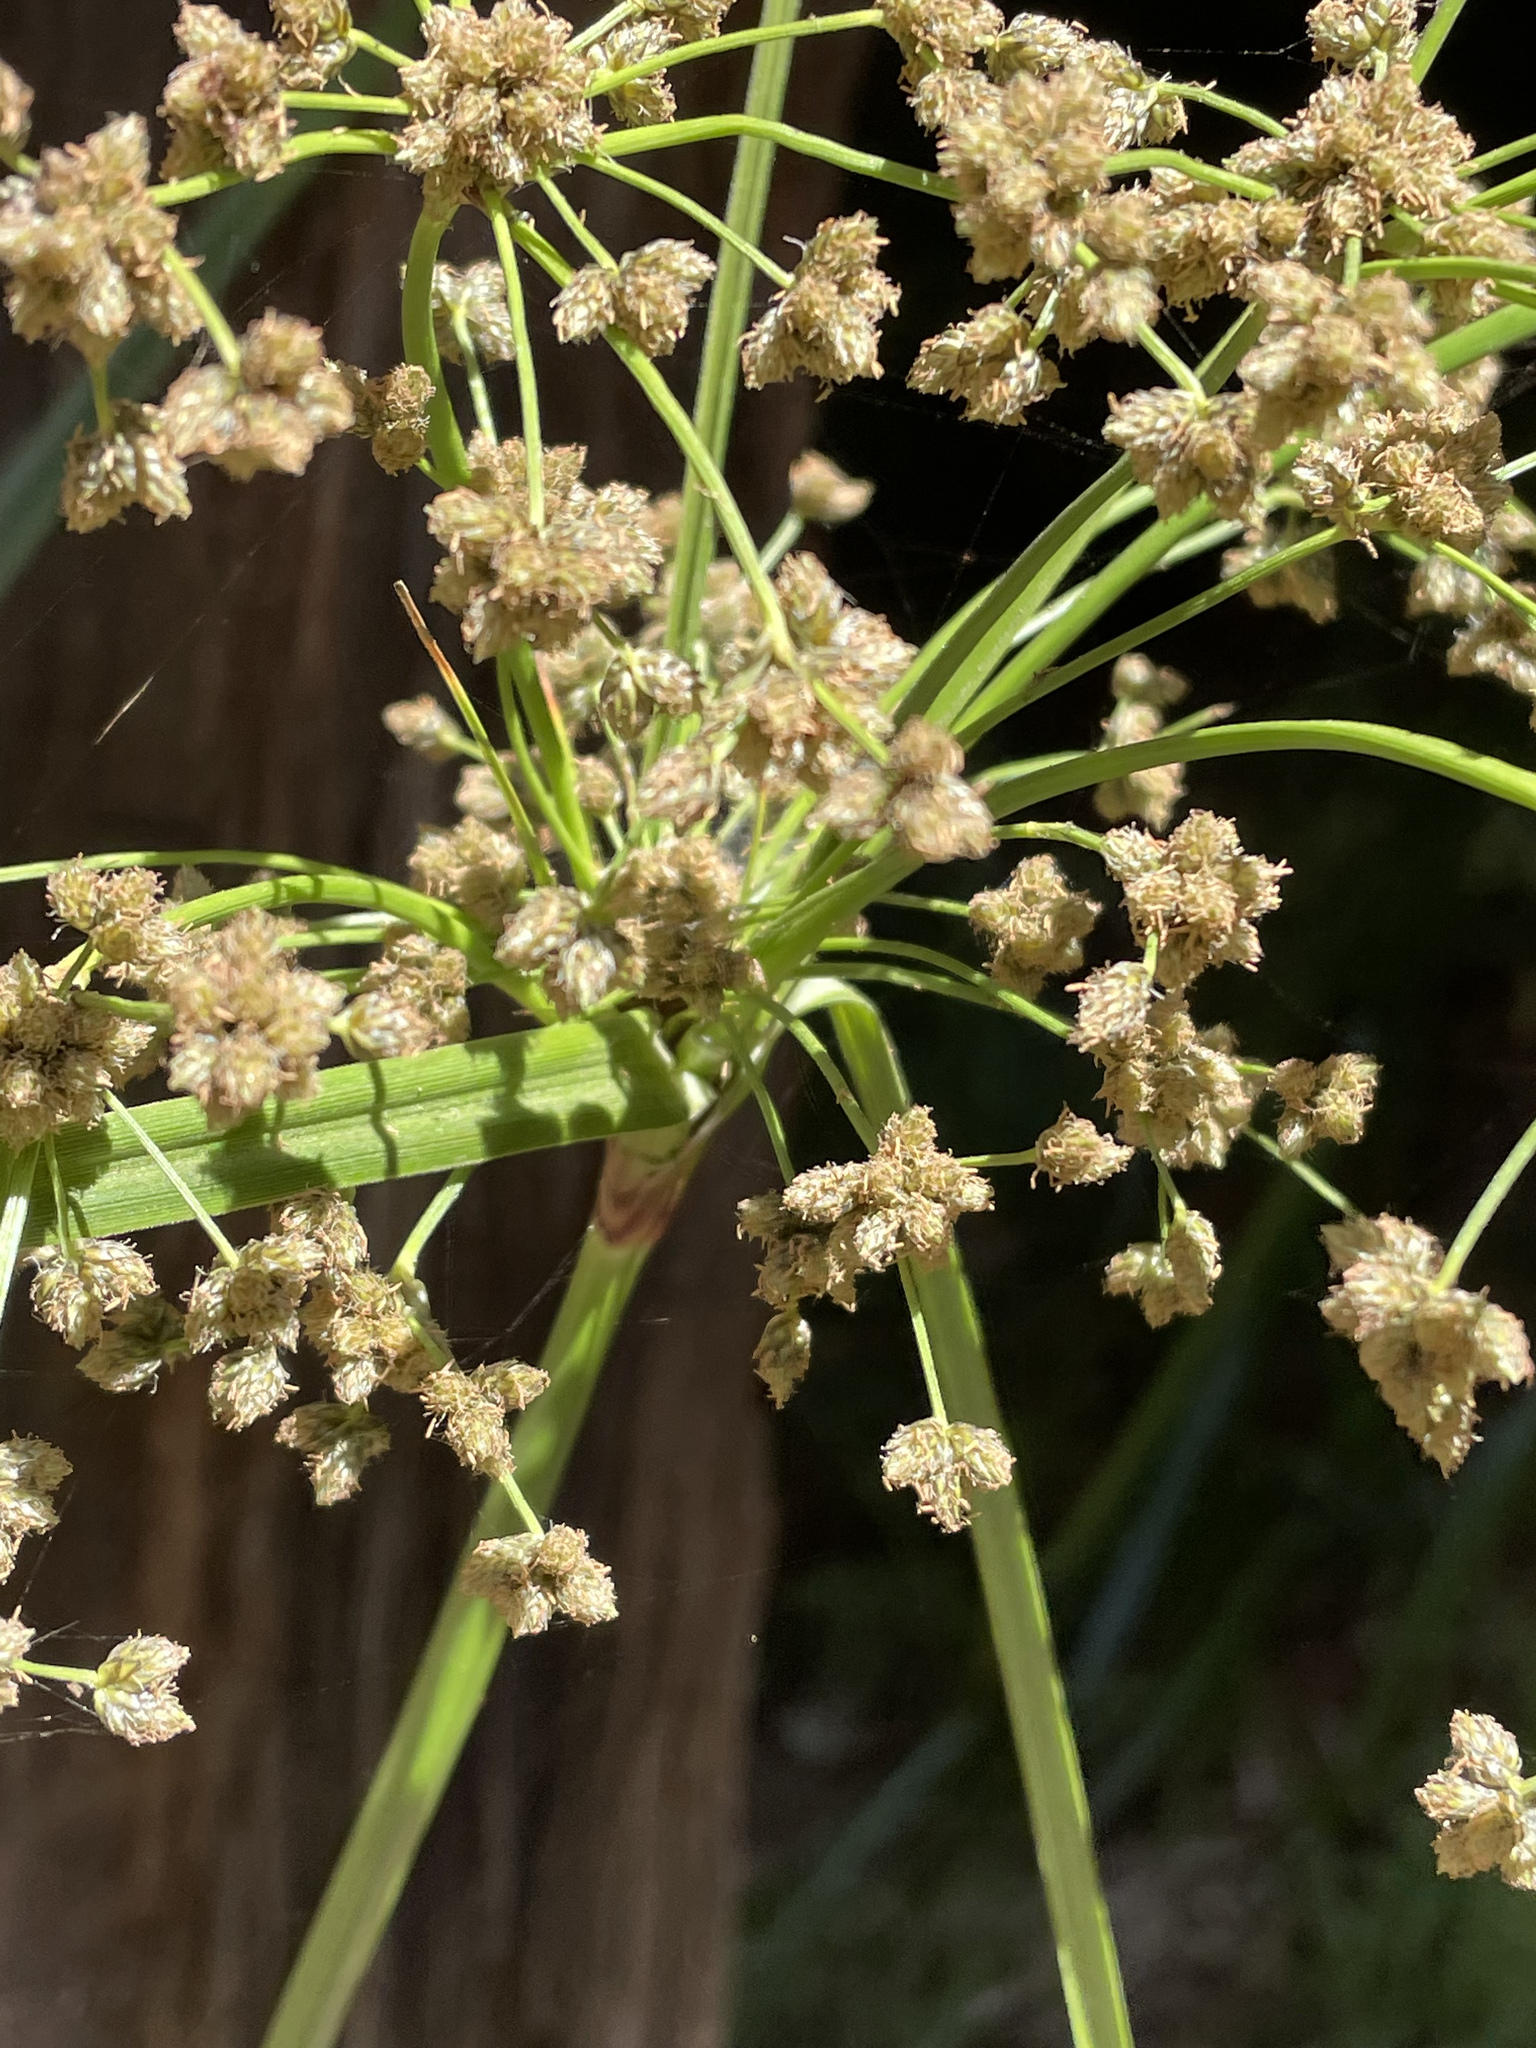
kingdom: Plantae
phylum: Tracheophyta
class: Liliopsida
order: Poales
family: Cyperaceae
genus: Scirpus
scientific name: Scirpus microcarpus
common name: Panicled bulrush
